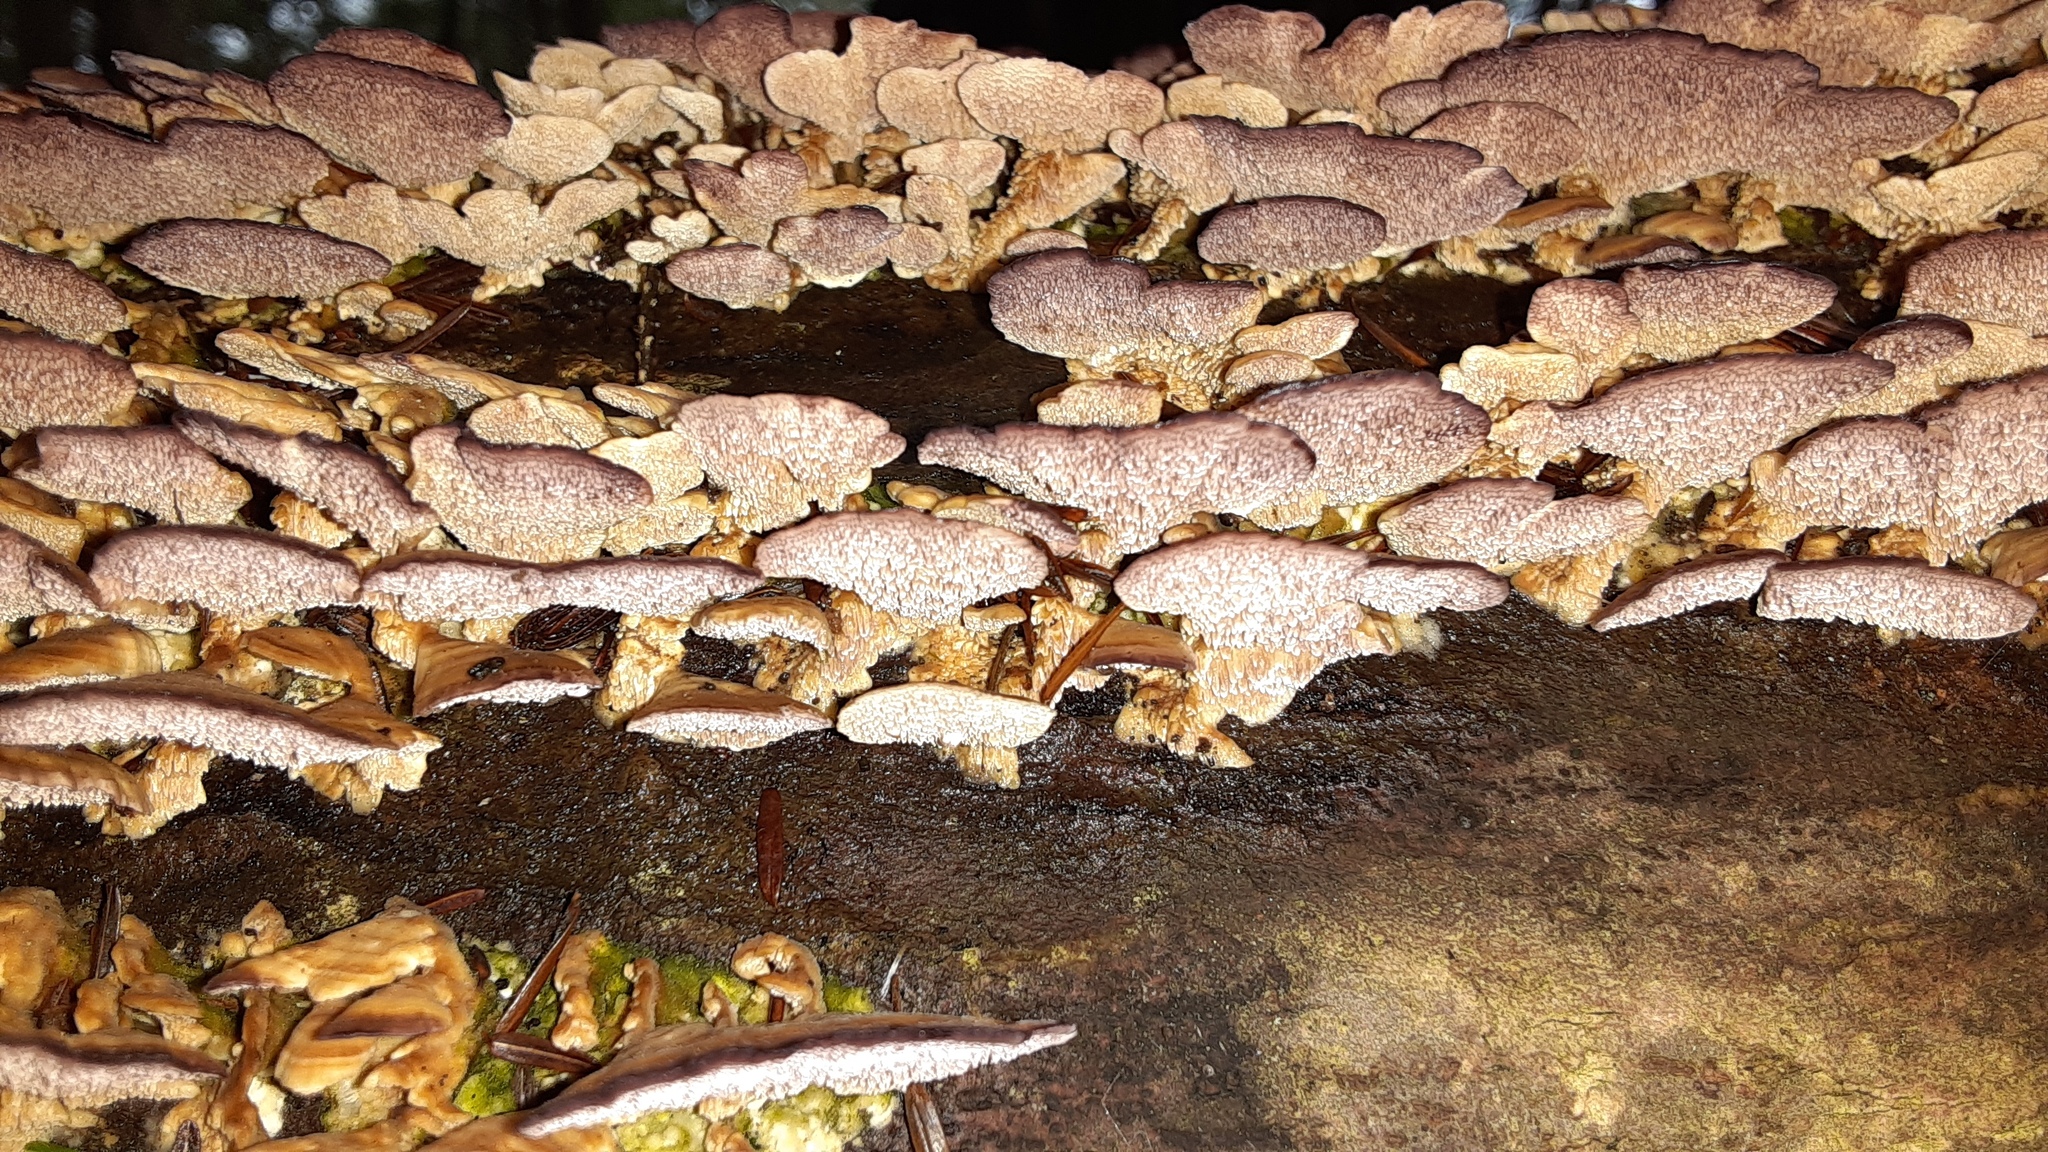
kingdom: Fungi
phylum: Basidiomycota
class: Agaricomycetes
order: Hymenochaetales
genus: Trichaptum
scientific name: Trichaptum biforme
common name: Violet-toothed polypore
